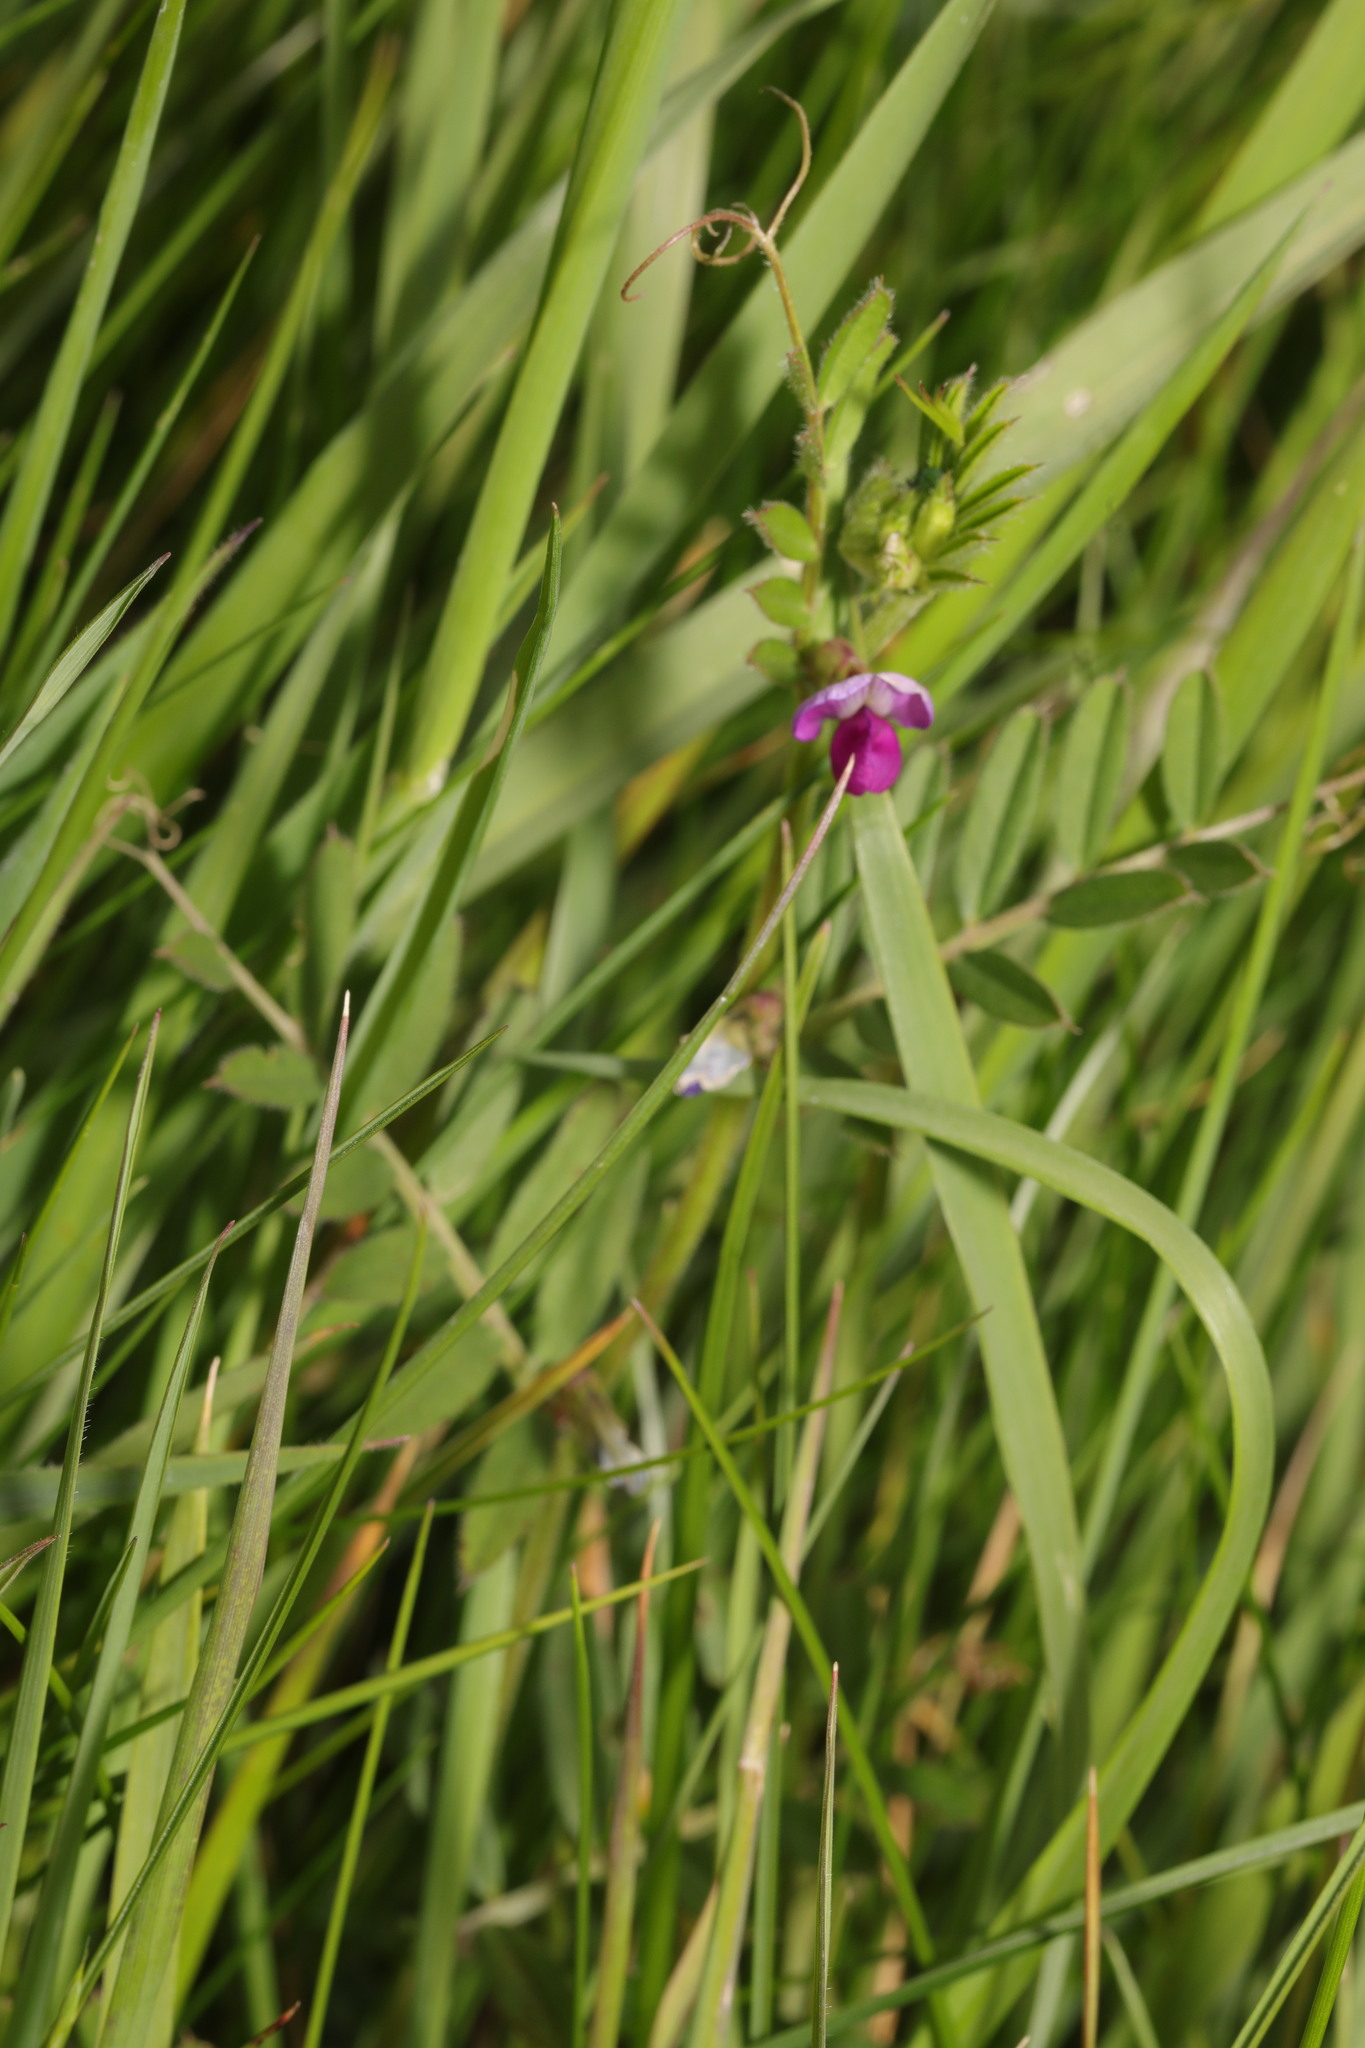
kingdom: Plantae
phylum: Tracheophyta
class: Magnoliopsida
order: Fabales
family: Fabaceae
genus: Vicia
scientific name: Vicia sativa
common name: Garden vetch
